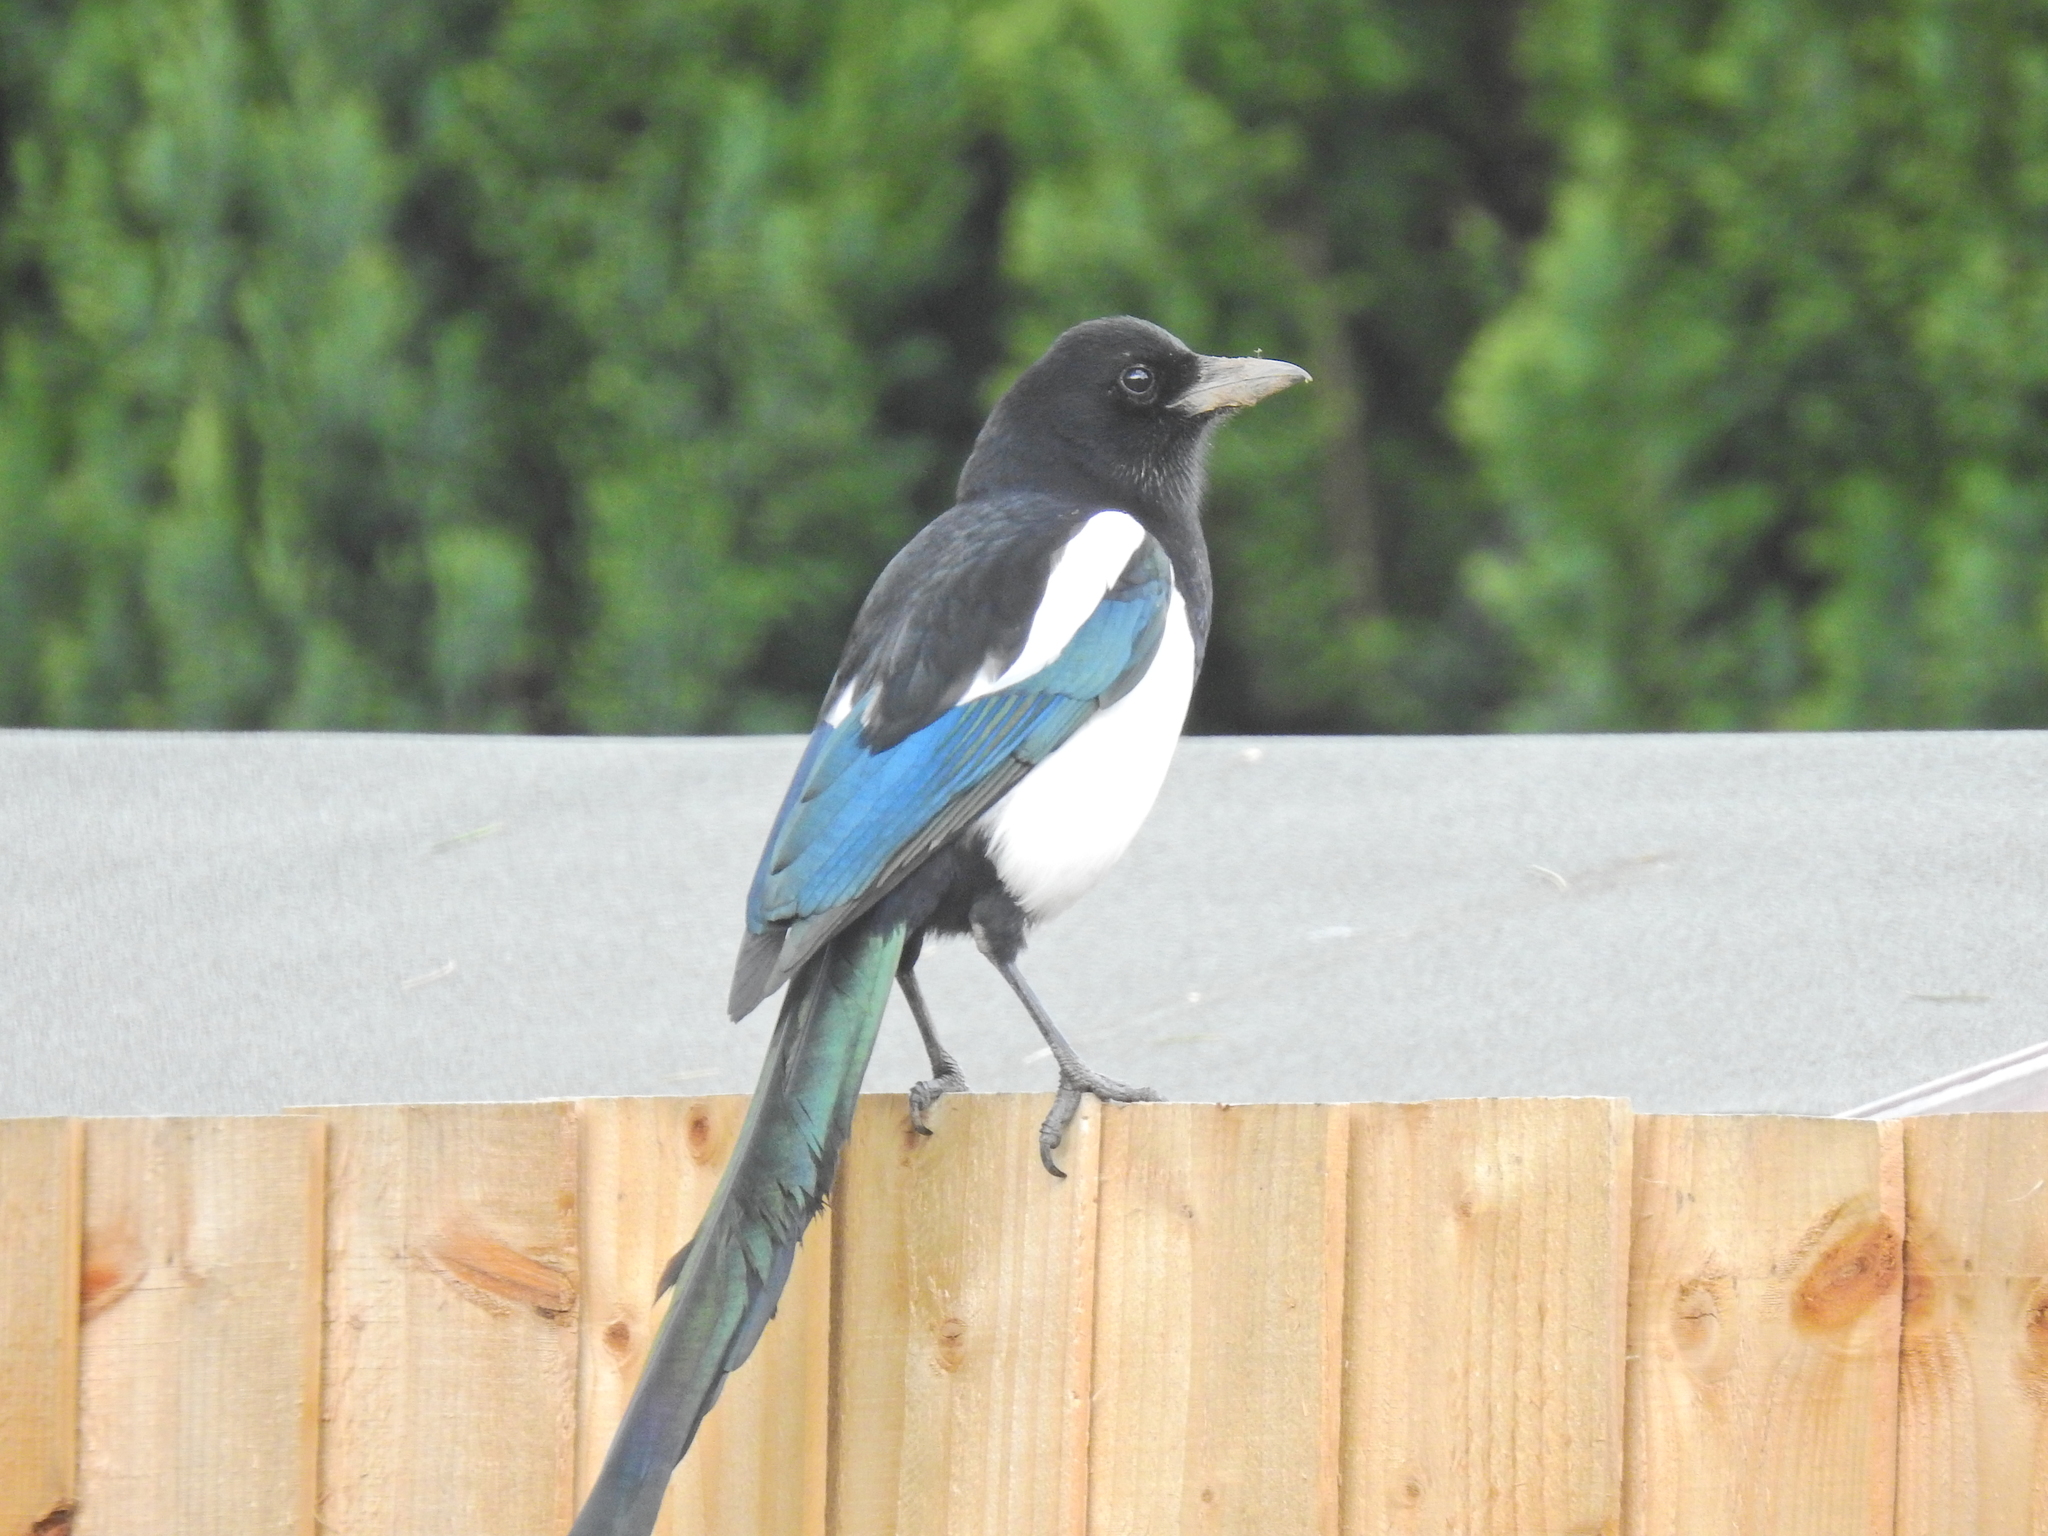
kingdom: Animalia
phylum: Chordata
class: Aves
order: Passeriformes
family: Corvidae
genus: Pica
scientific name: Pica pica
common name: Eurasian magpie
